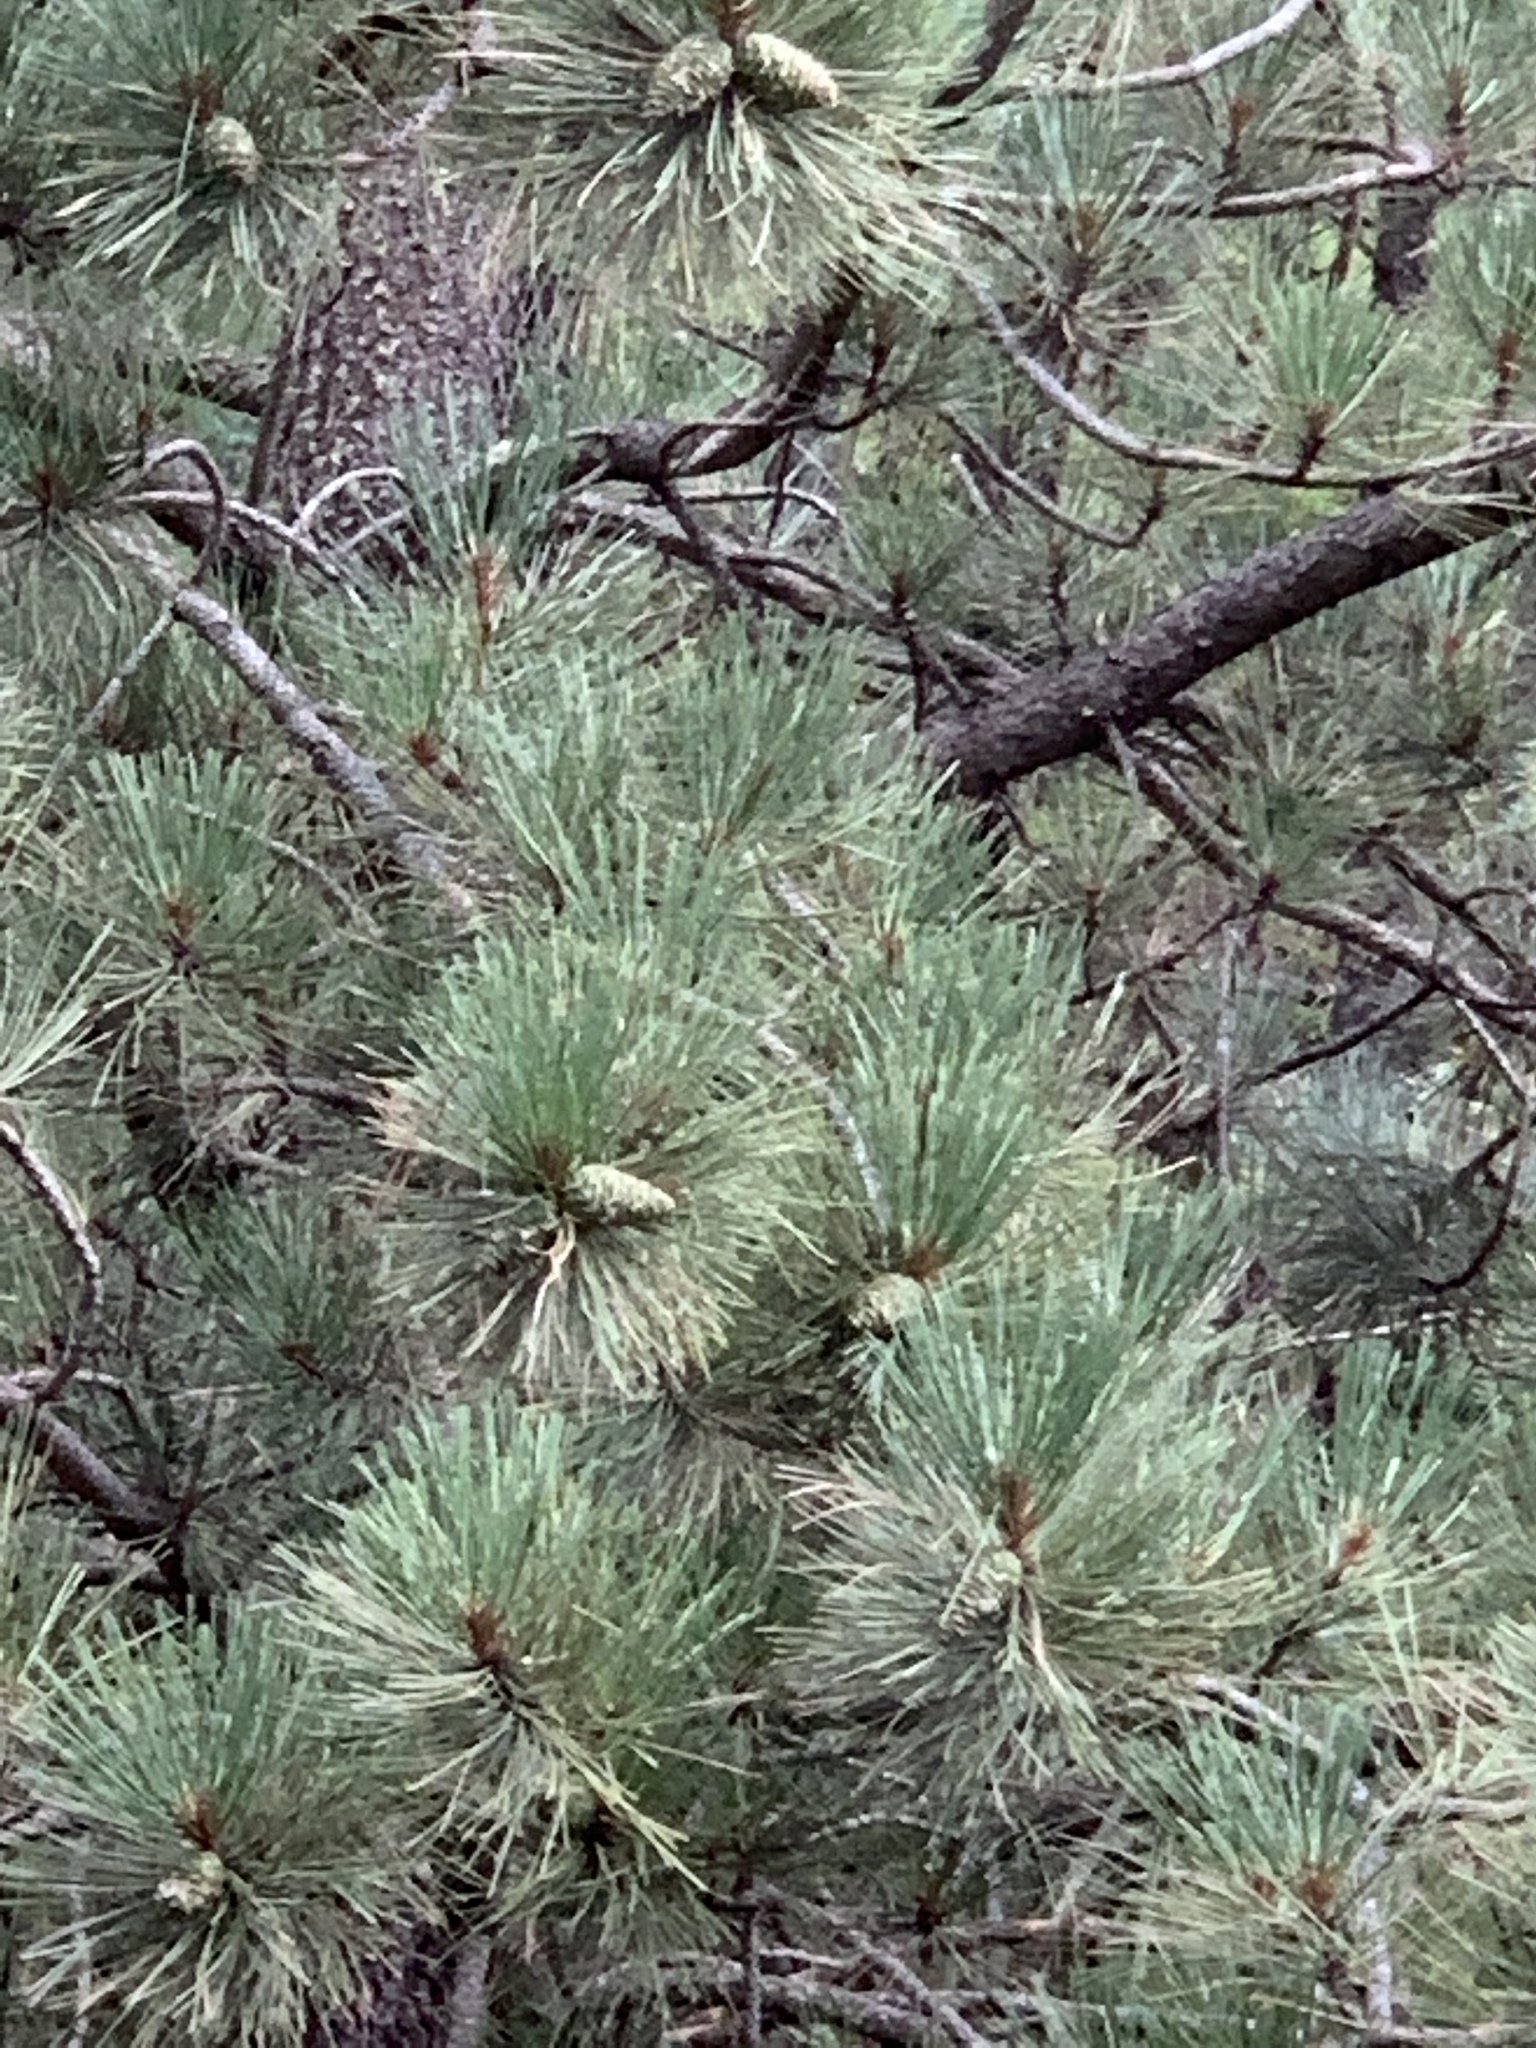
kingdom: Plantae
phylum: Tracheophyta
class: Pinopsida
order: Pinales
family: Pinaceae
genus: Pinus
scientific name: Pinus ponderosa
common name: Western yellow-pine
